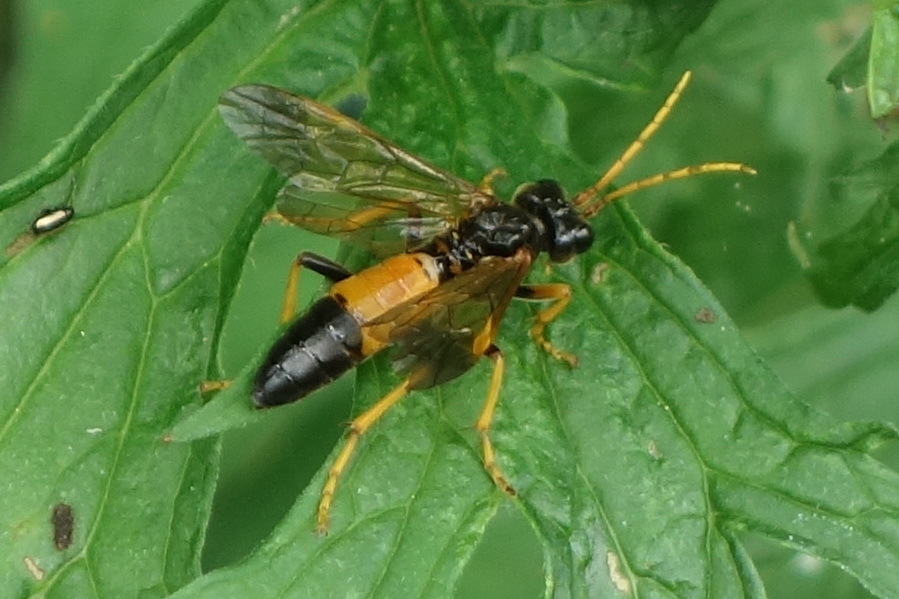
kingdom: Animalia
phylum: Arthropoda
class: Insecta
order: Hymenoptera
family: Tenthredinidae
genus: Tenthredo
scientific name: Tenthredo campestris
